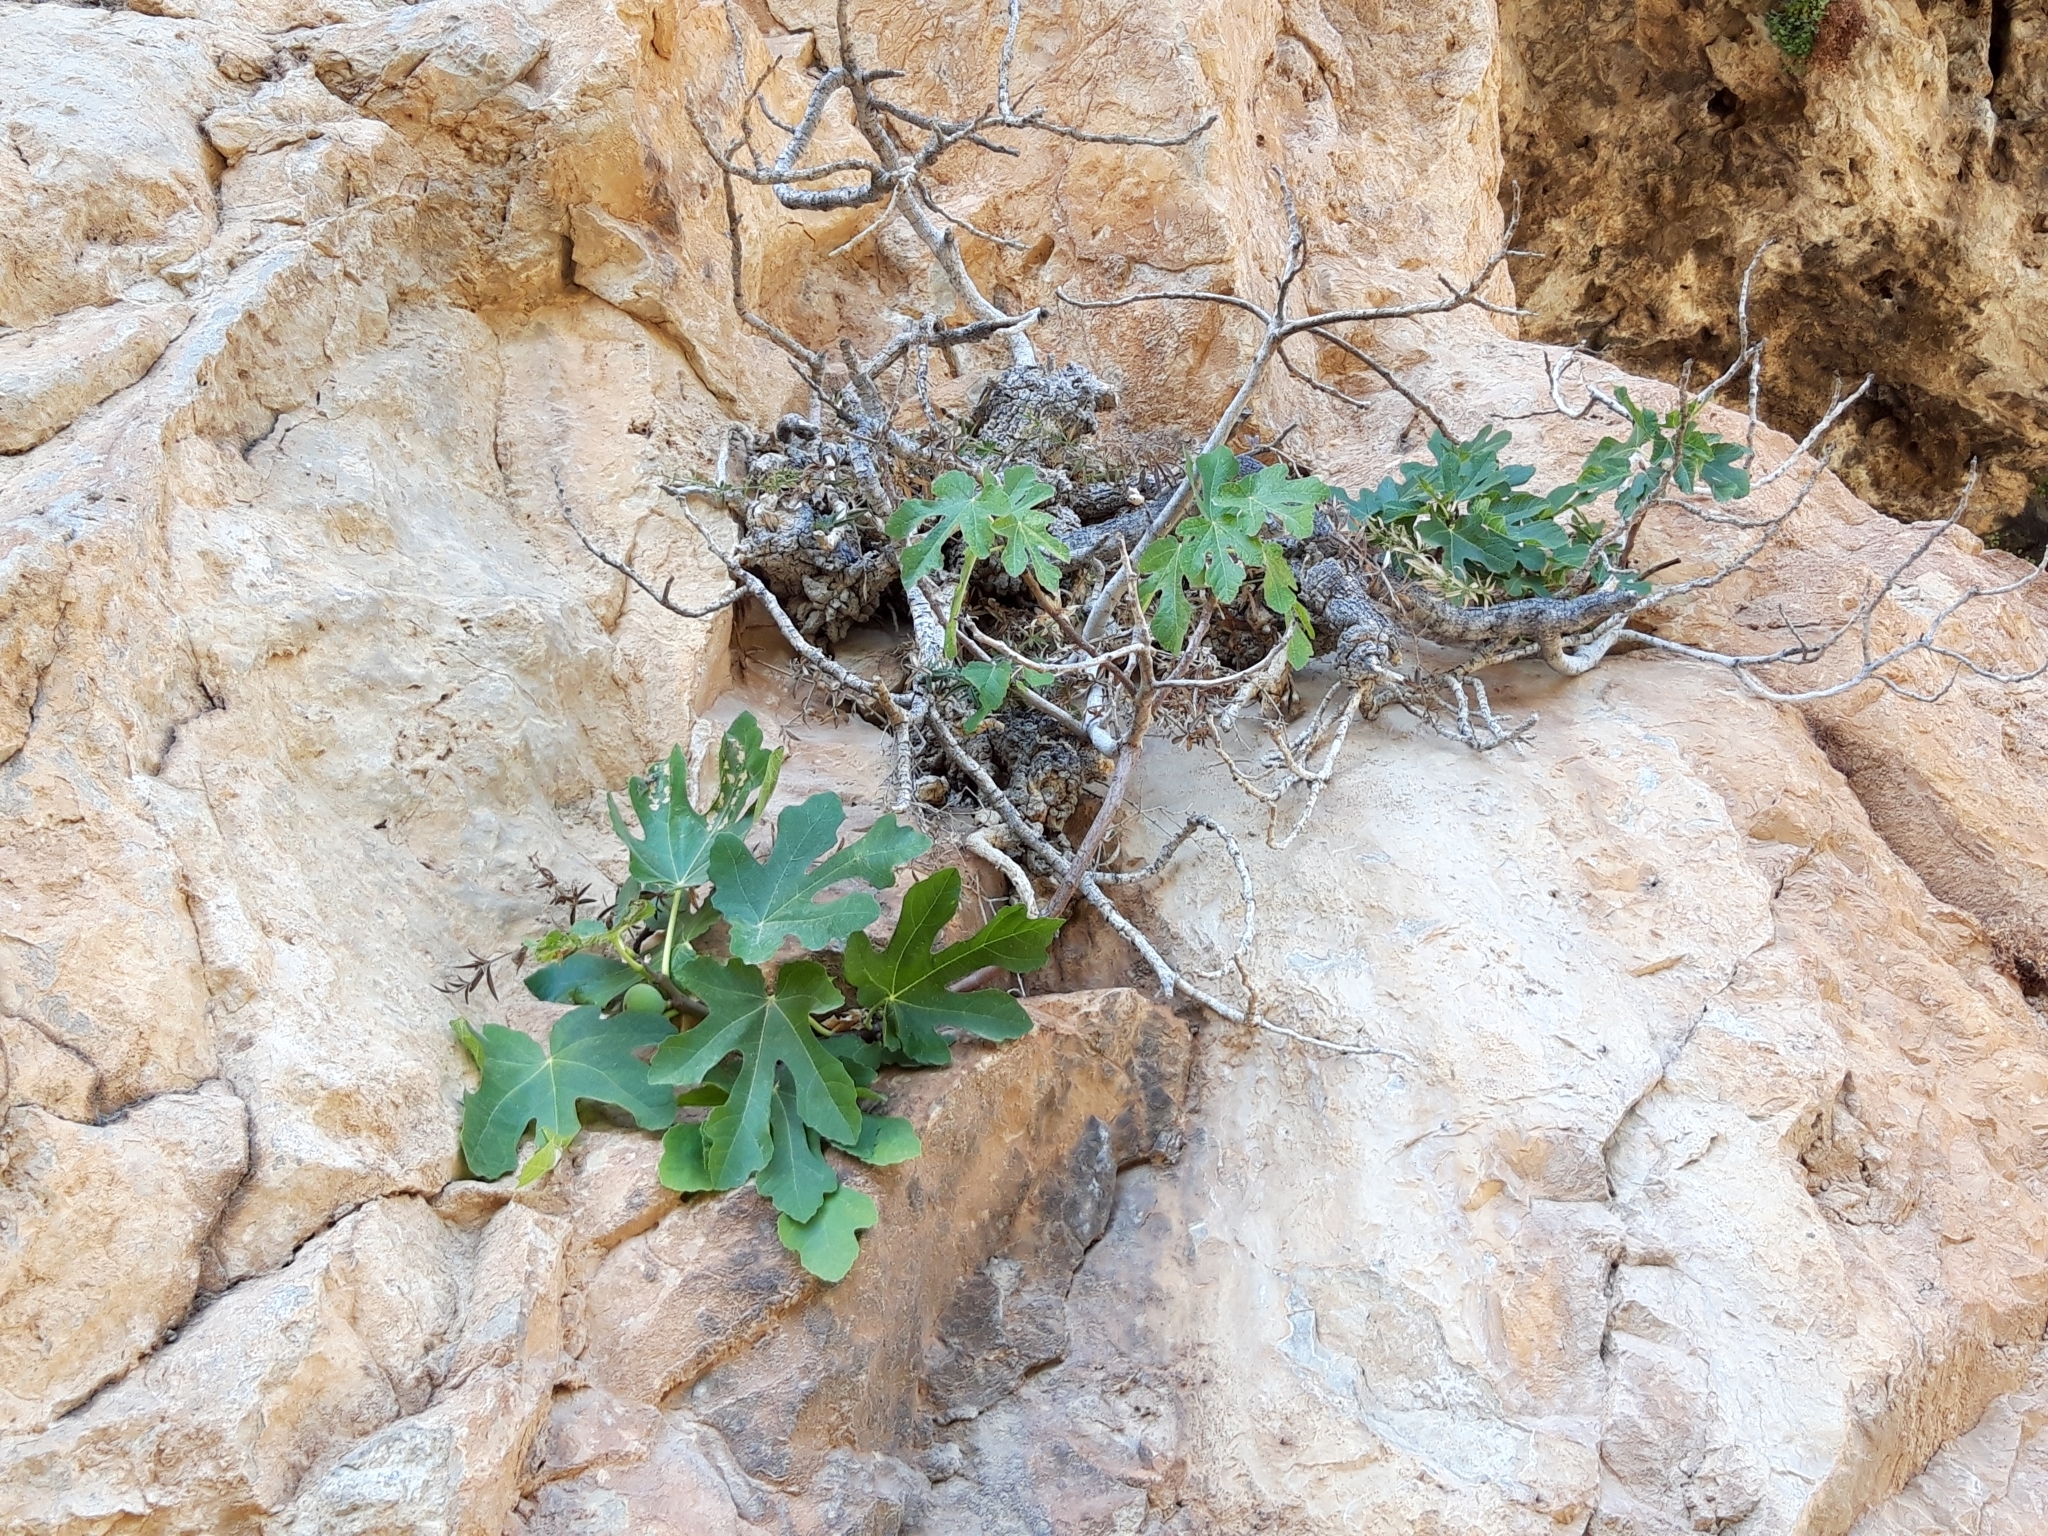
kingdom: Plantae
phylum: Tracheophyta
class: Magnoliopsida
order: Rosales
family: Moraceae
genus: Ficus
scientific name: Ficus carica
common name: Fig
